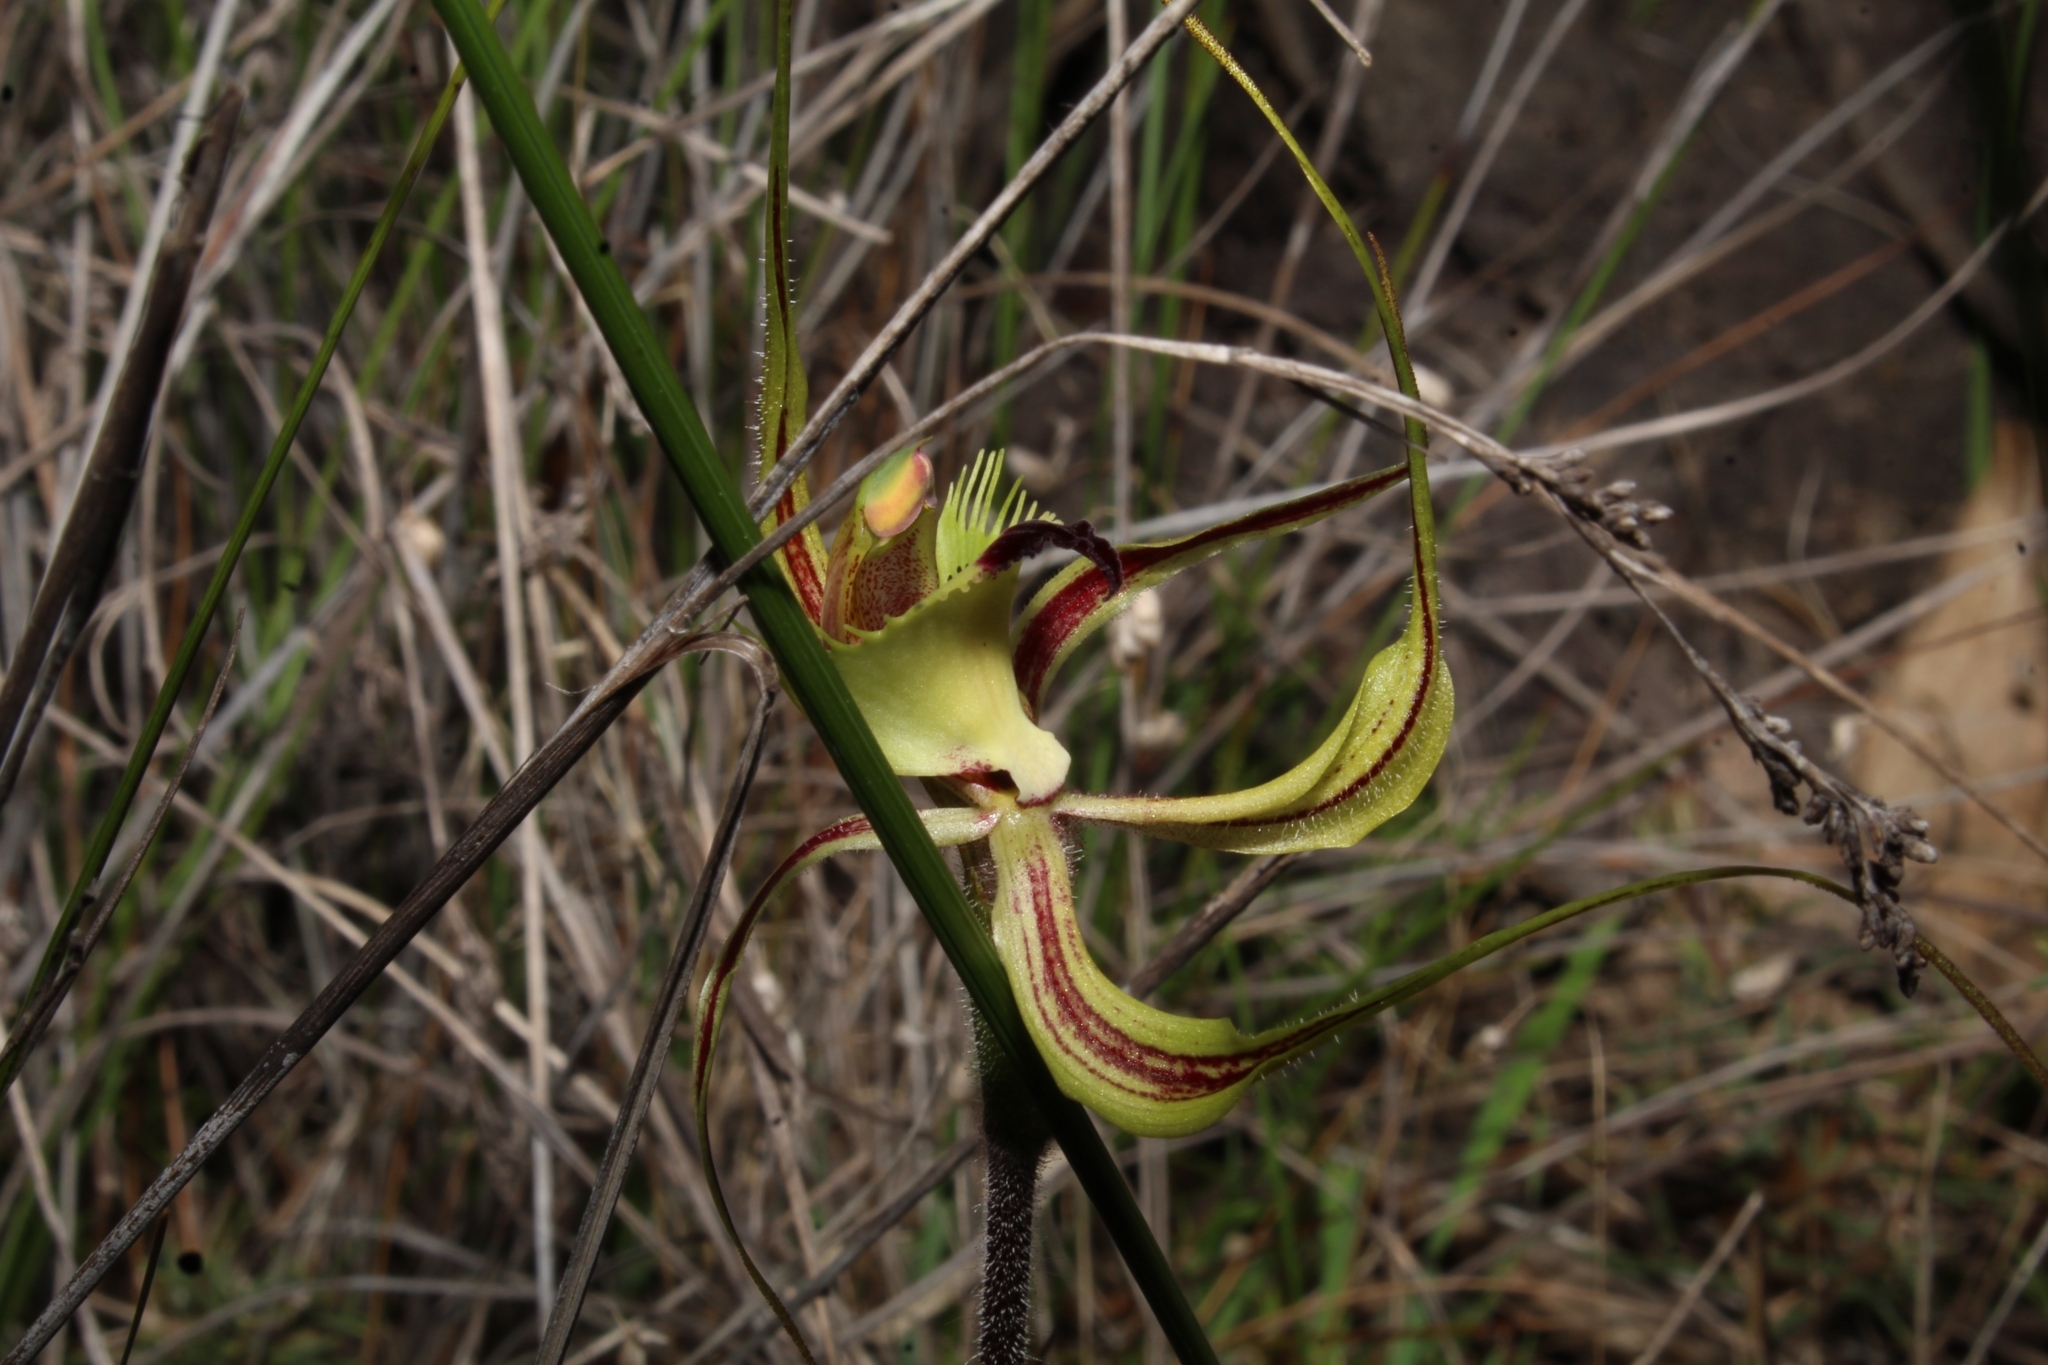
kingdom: Plantae
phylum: Tracheophyta
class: Liliopsida
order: Asparagales
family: Orchidaceae
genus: Caladenia
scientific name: Caladenia falcata
